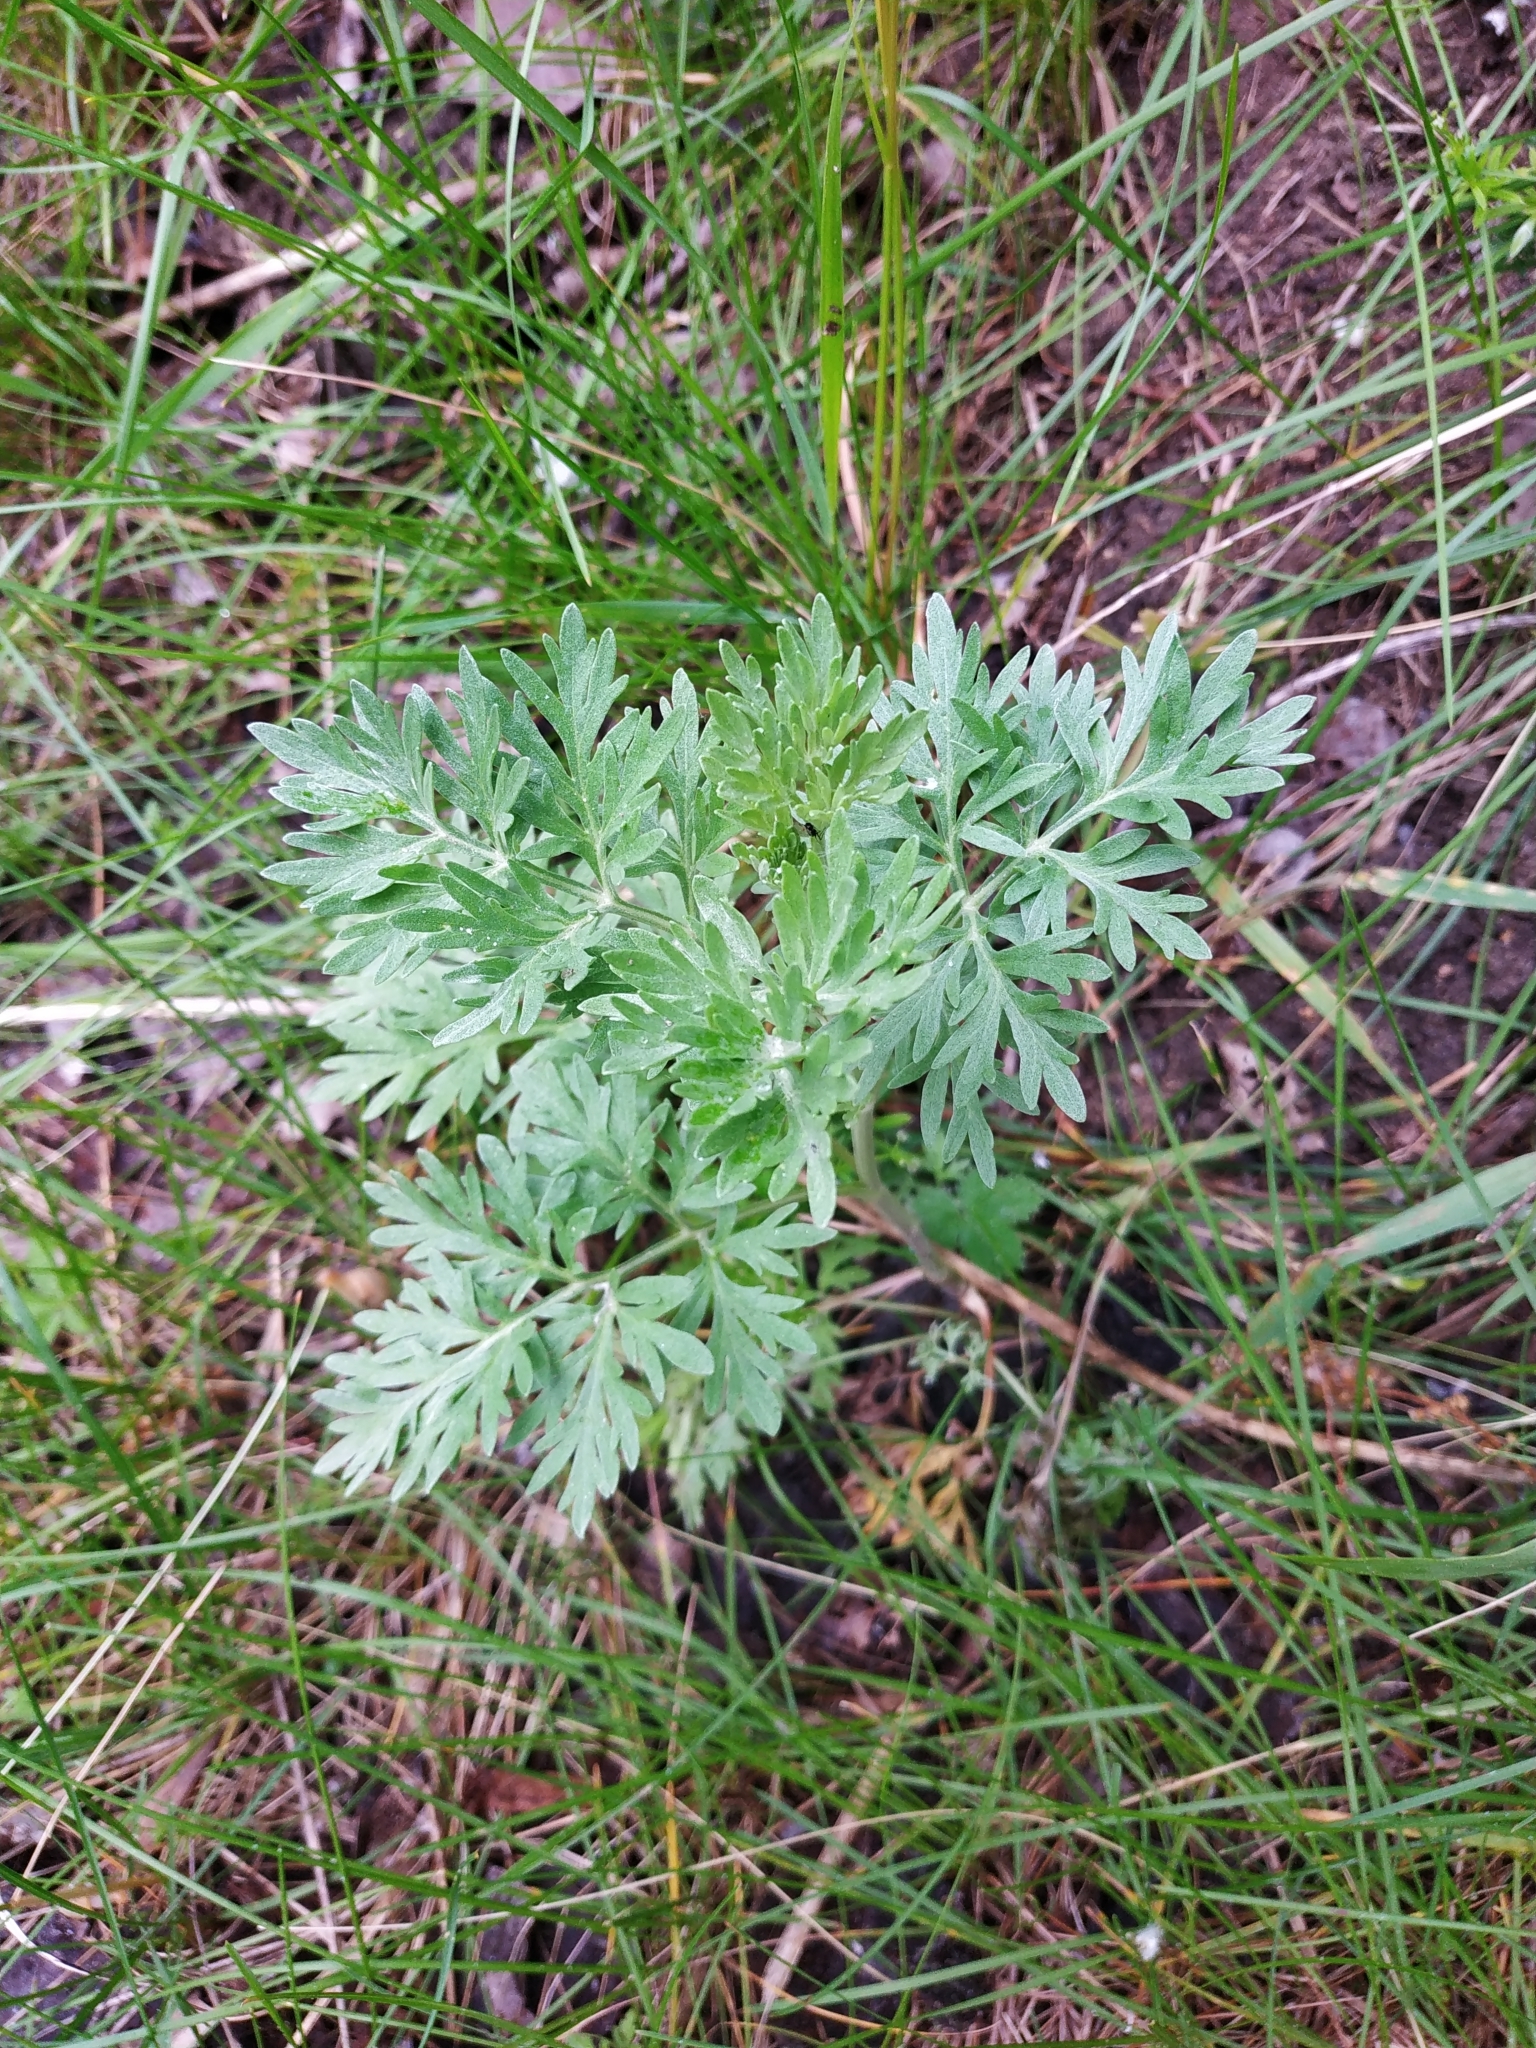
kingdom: Plantae
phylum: Tracheophyta
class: Magnoliopsida
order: Asterales
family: Asteraceae
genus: Artemisia
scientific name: Artemisia absinthium
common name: Wormwood
